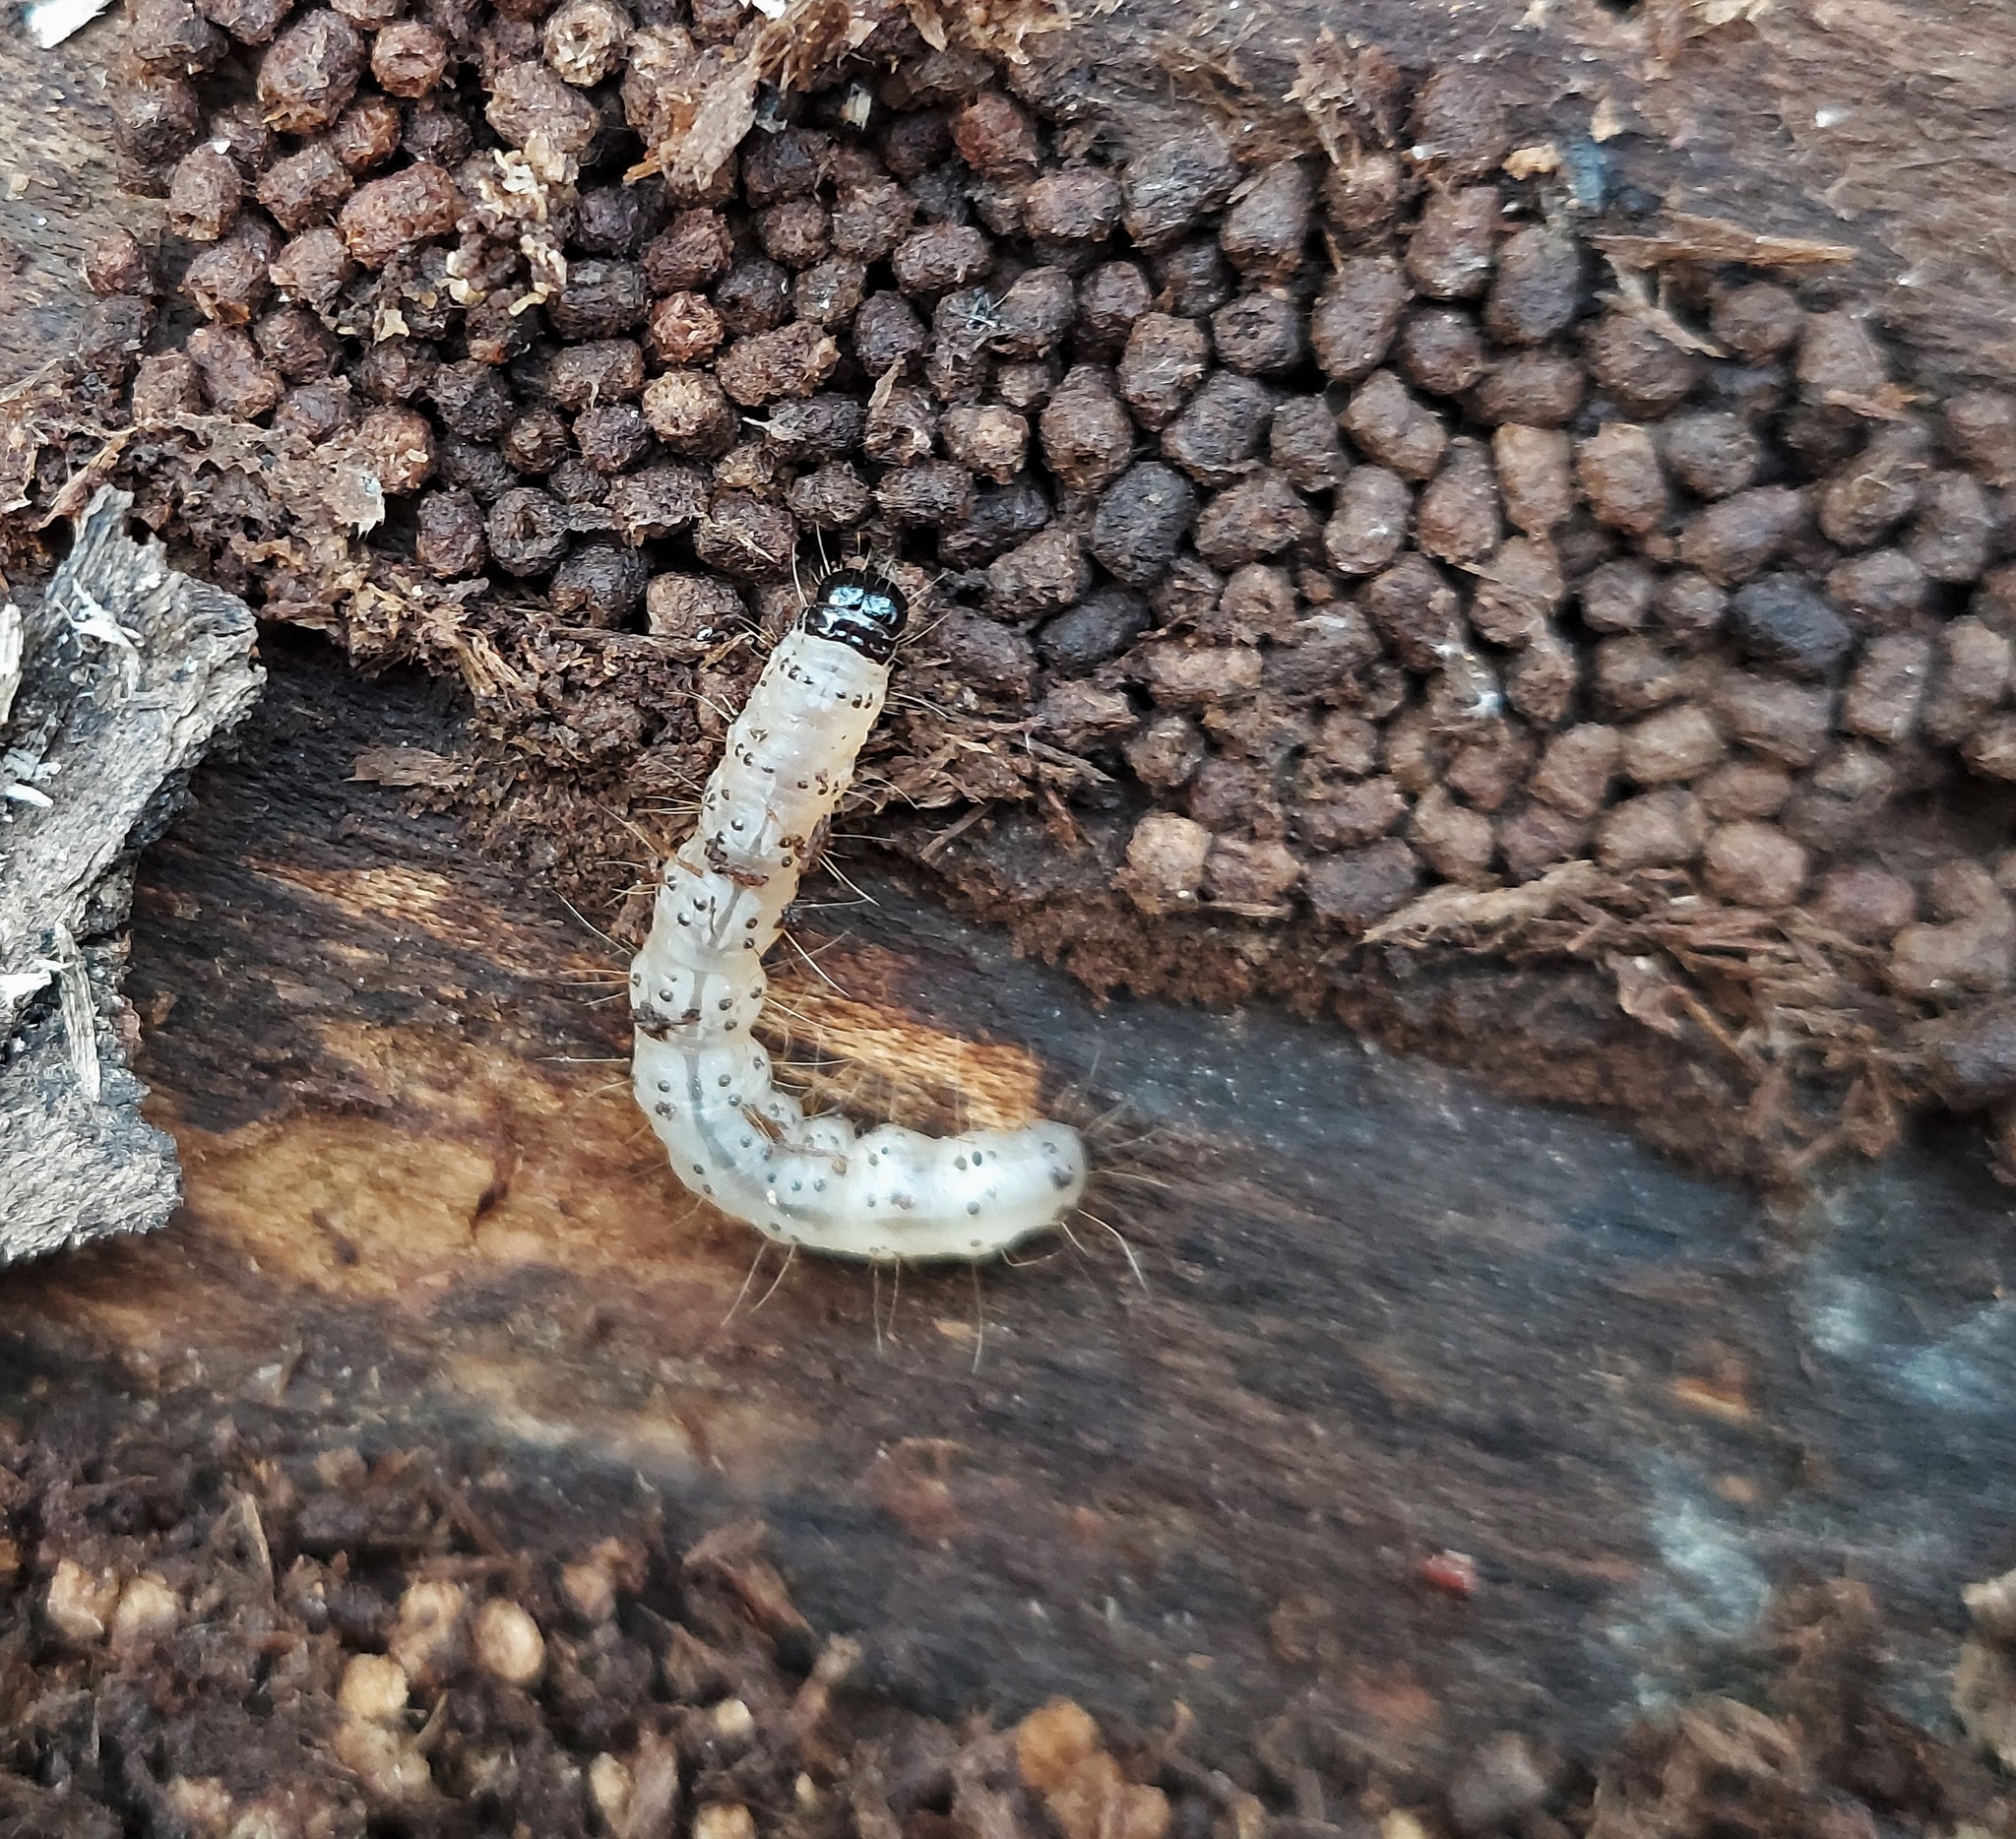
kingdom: Animalia
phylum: Arthropoda
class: Insecta
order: Lepidoptera
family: Erebidae
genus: Scolecocampa
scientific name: Scolecocampa liburna
